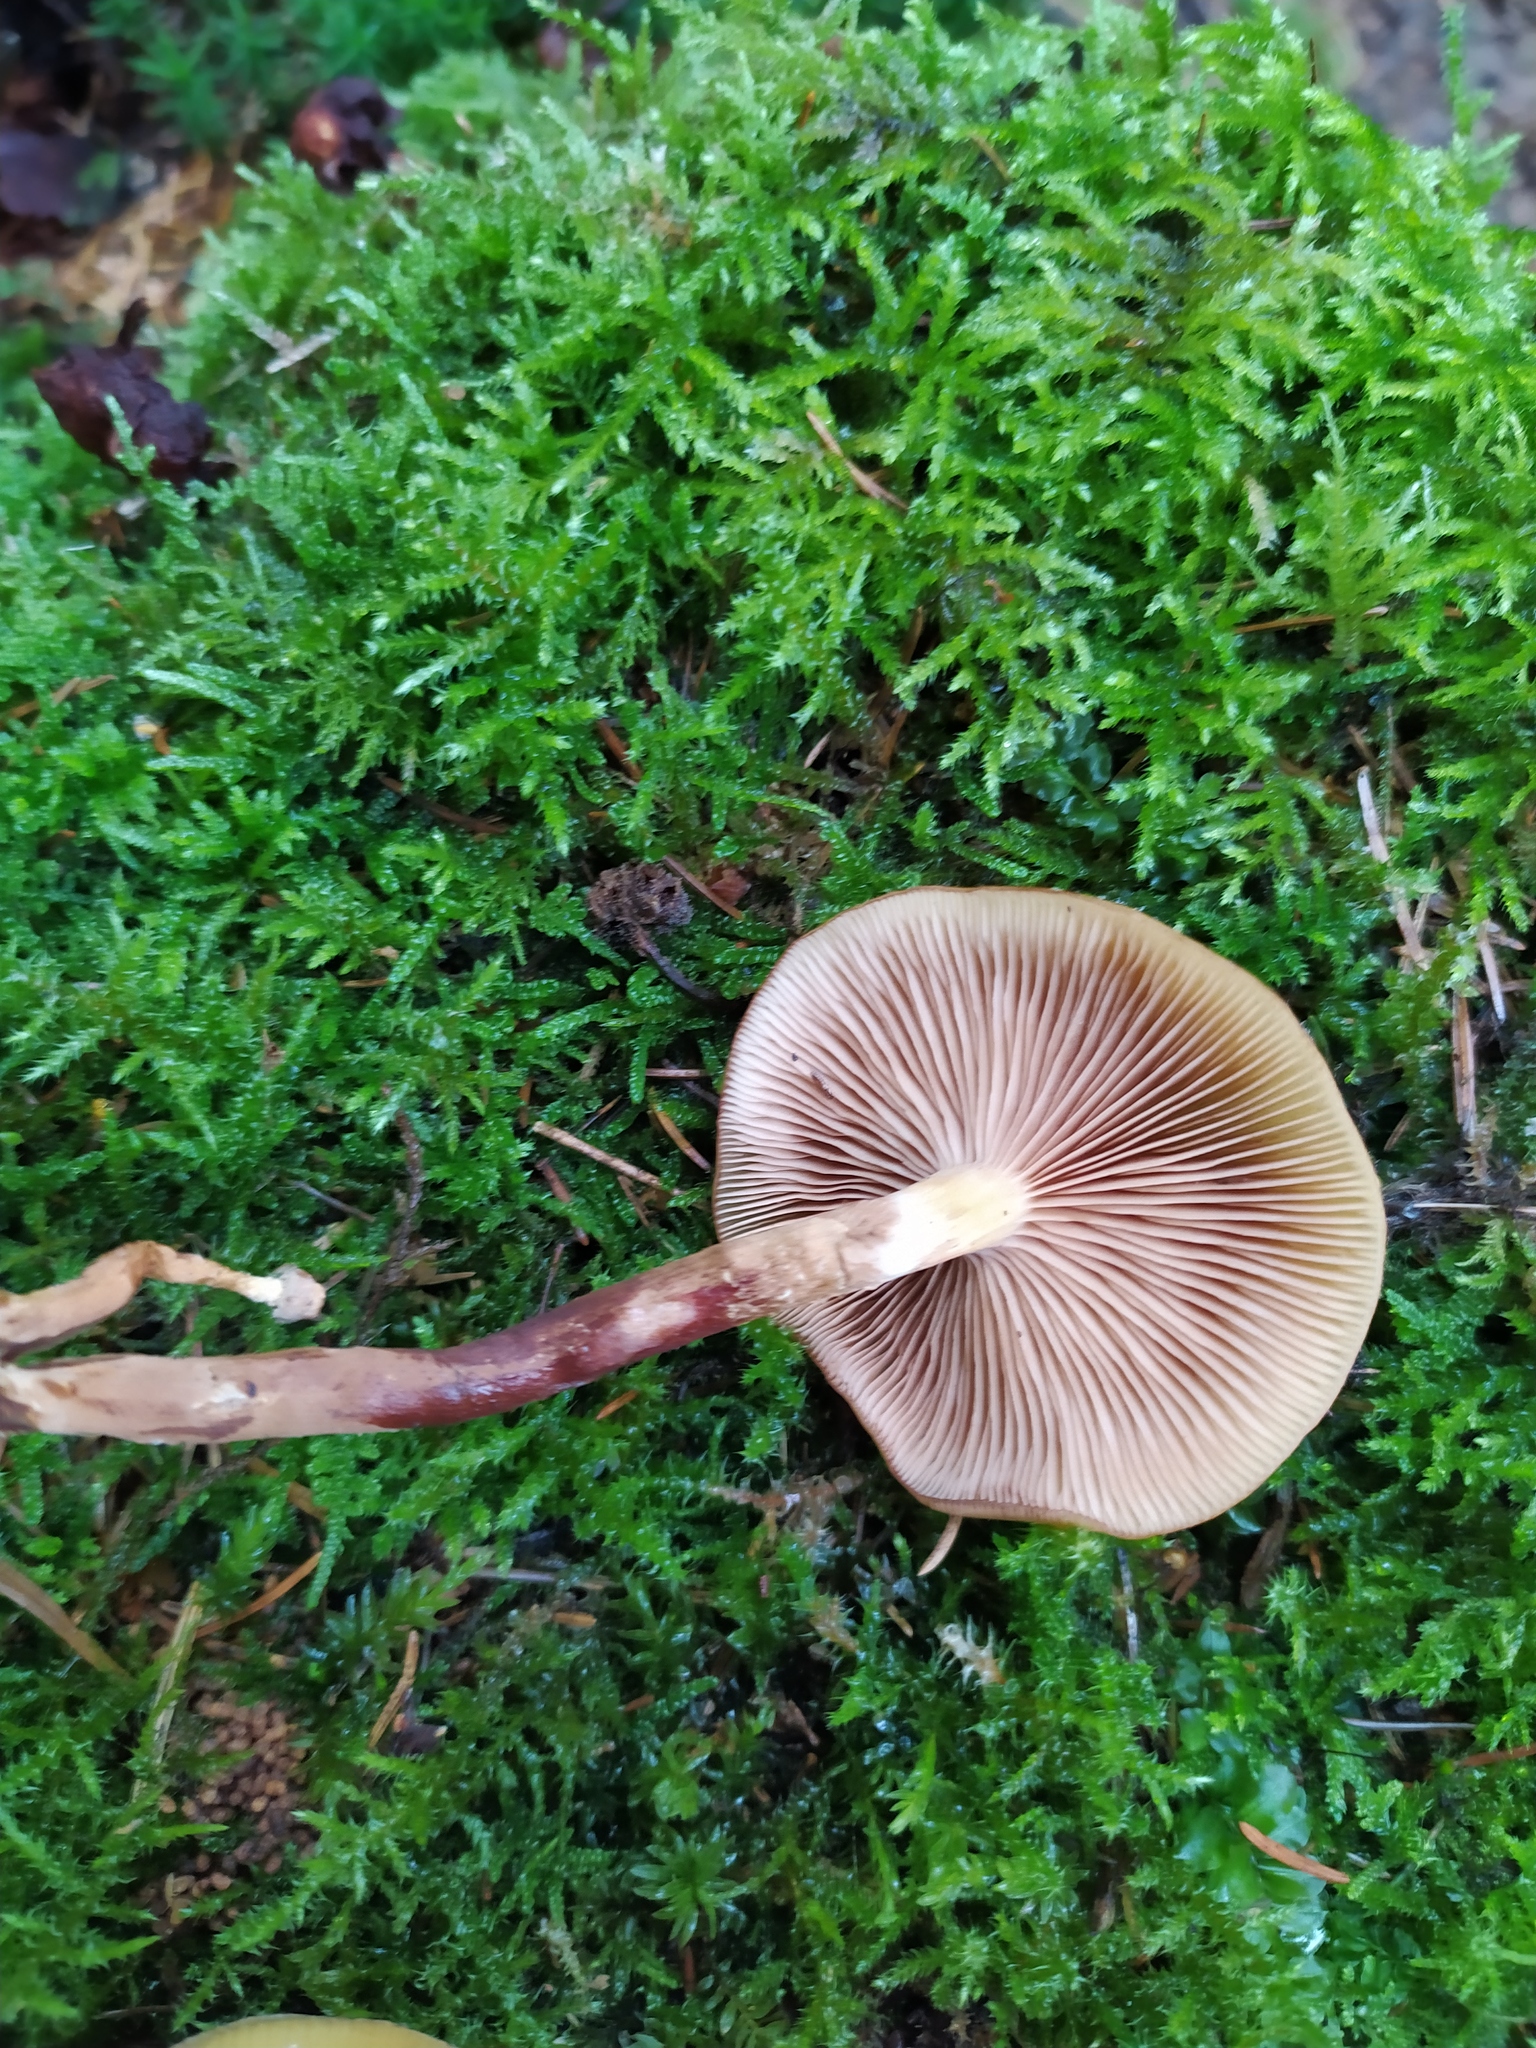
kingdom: Fungi
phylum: Basidiomycota
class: Agaricomycetes
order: Agaricales
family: Strophariaceae
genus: Kuehneromyces
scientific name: Kuehneromyces mutabilis
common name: Sheathed woodtuft
